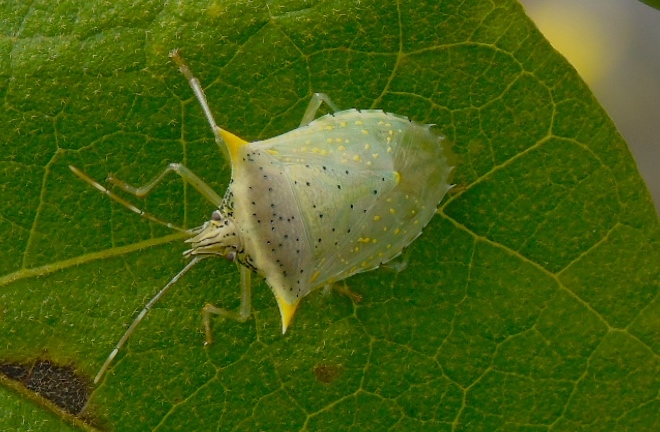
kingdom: Animalia
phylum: Arthropoda
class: Insecta
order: Hemiptera
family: Pentatomidae
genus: Arvelius
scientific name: Arvelius albopunctatus
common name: Tomato stink bug
